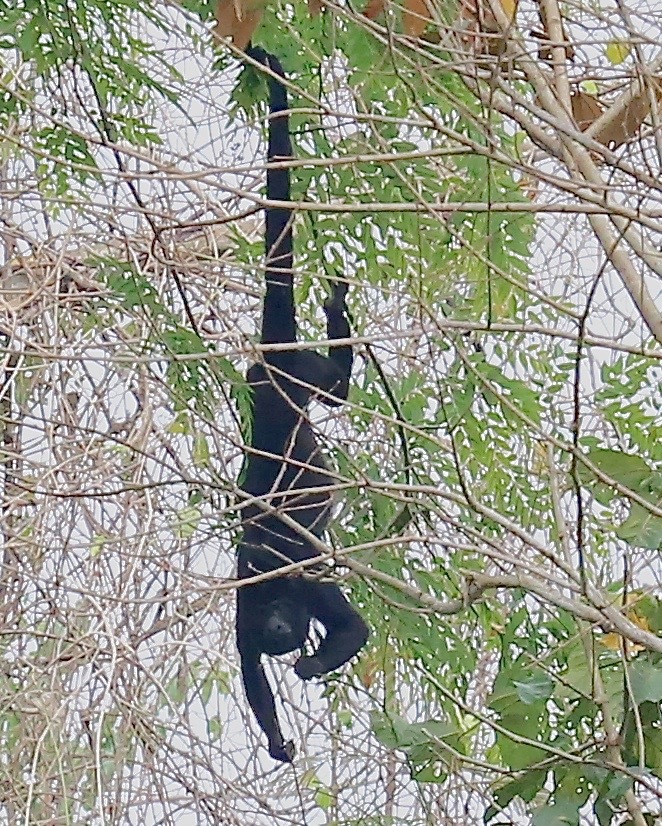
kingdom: Animalia
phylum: Chordata
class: Mammalia
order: Primates
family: Atelidae
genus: Alouatta
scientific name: Alouatta palliata
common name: Mantled howler
